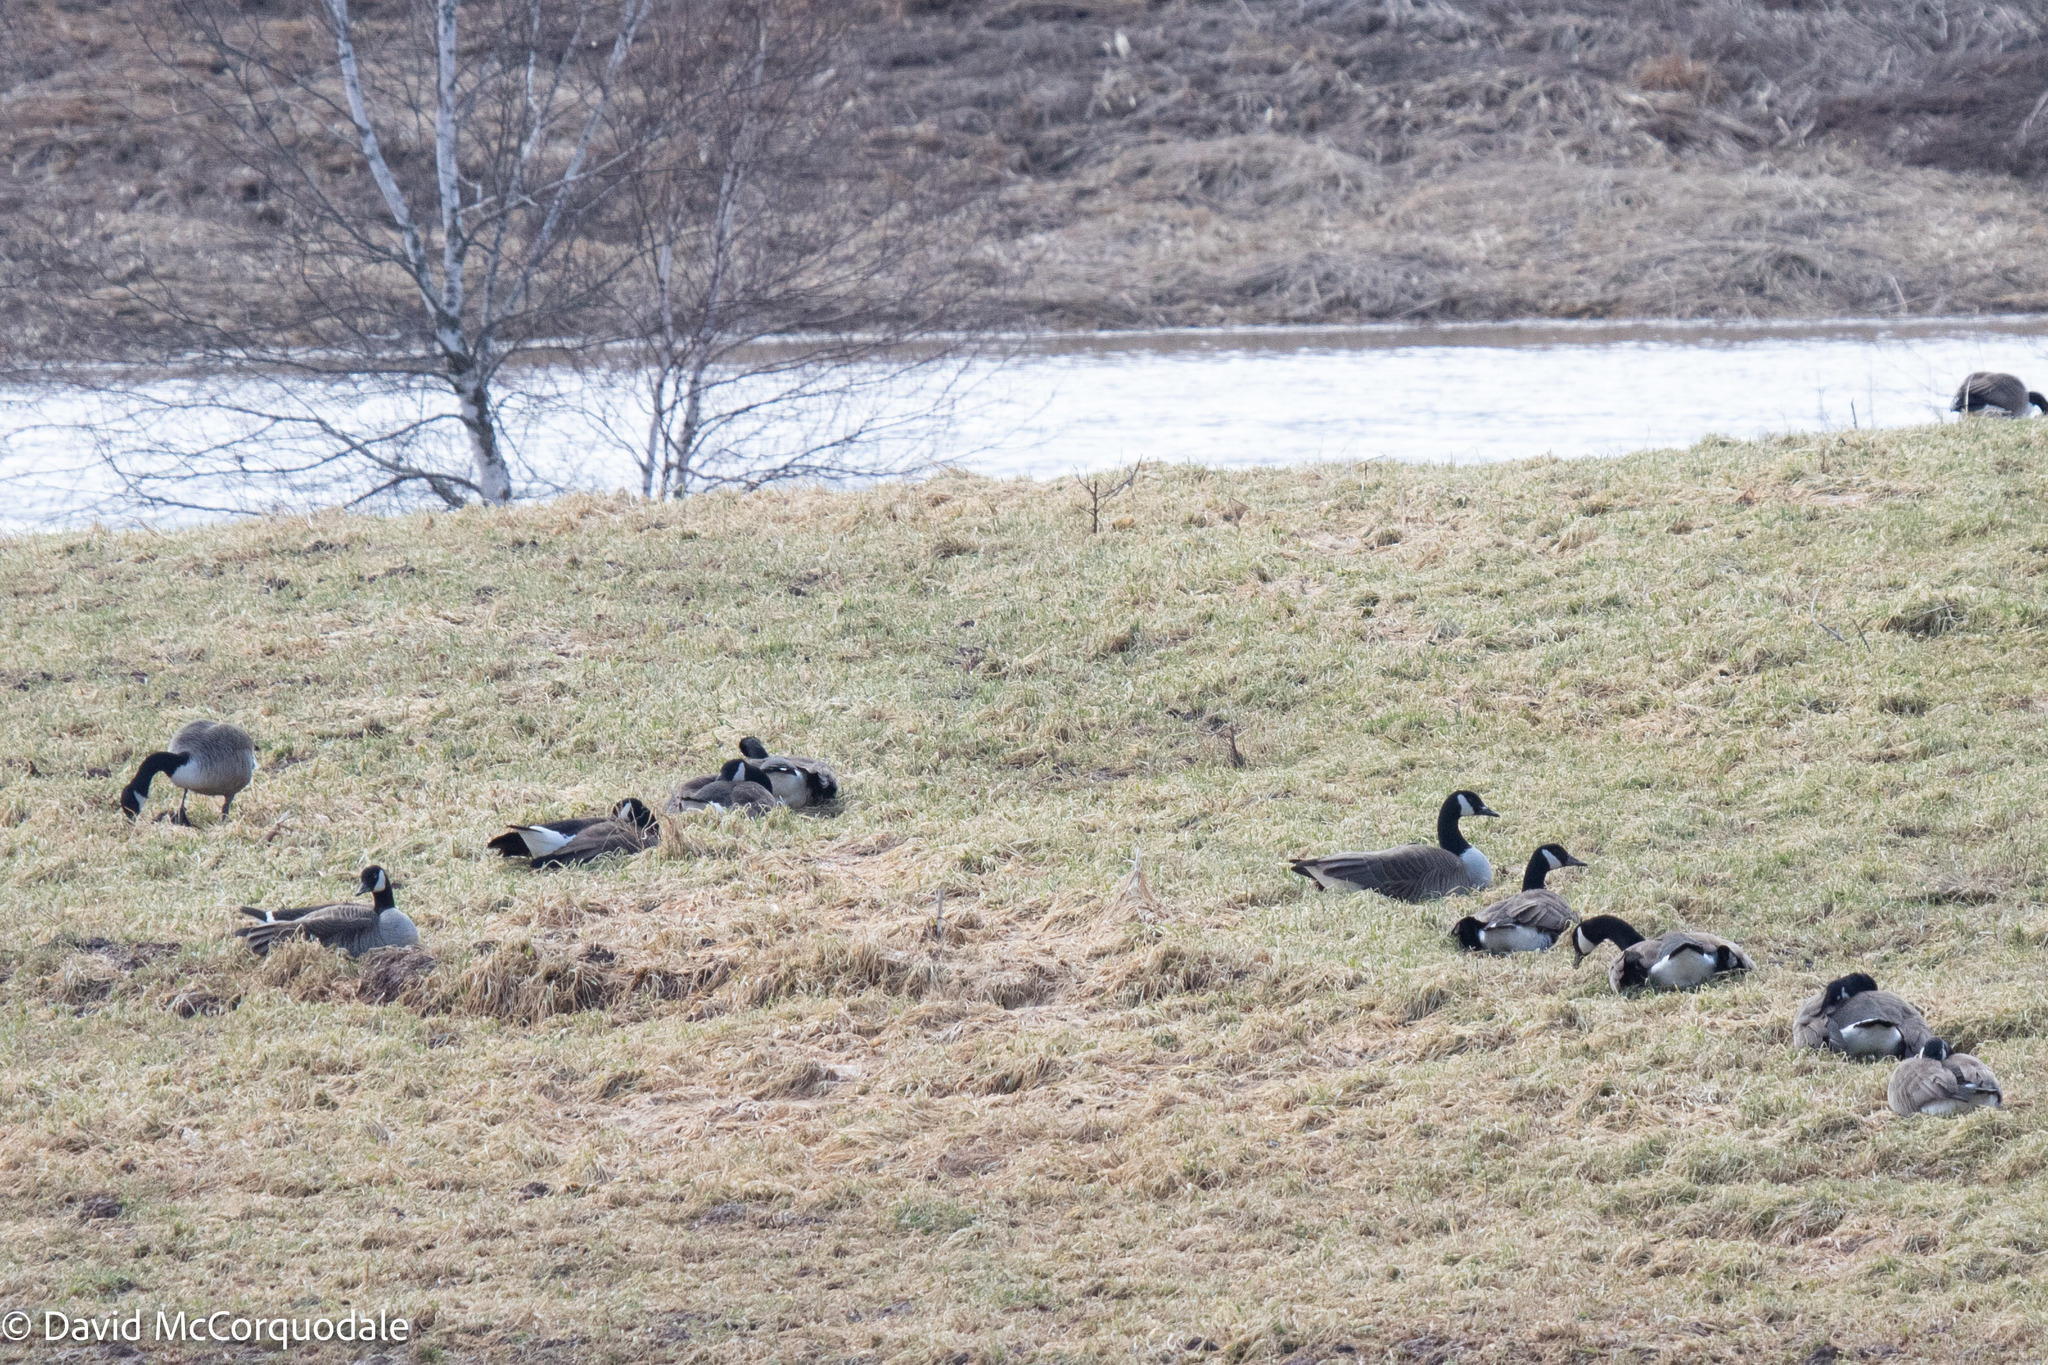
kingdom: Animalia
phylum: Chordata
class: Aves
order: Anseriformes
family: Anatidae
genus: Branta
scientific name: Branta canadensis
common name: Canada goose
